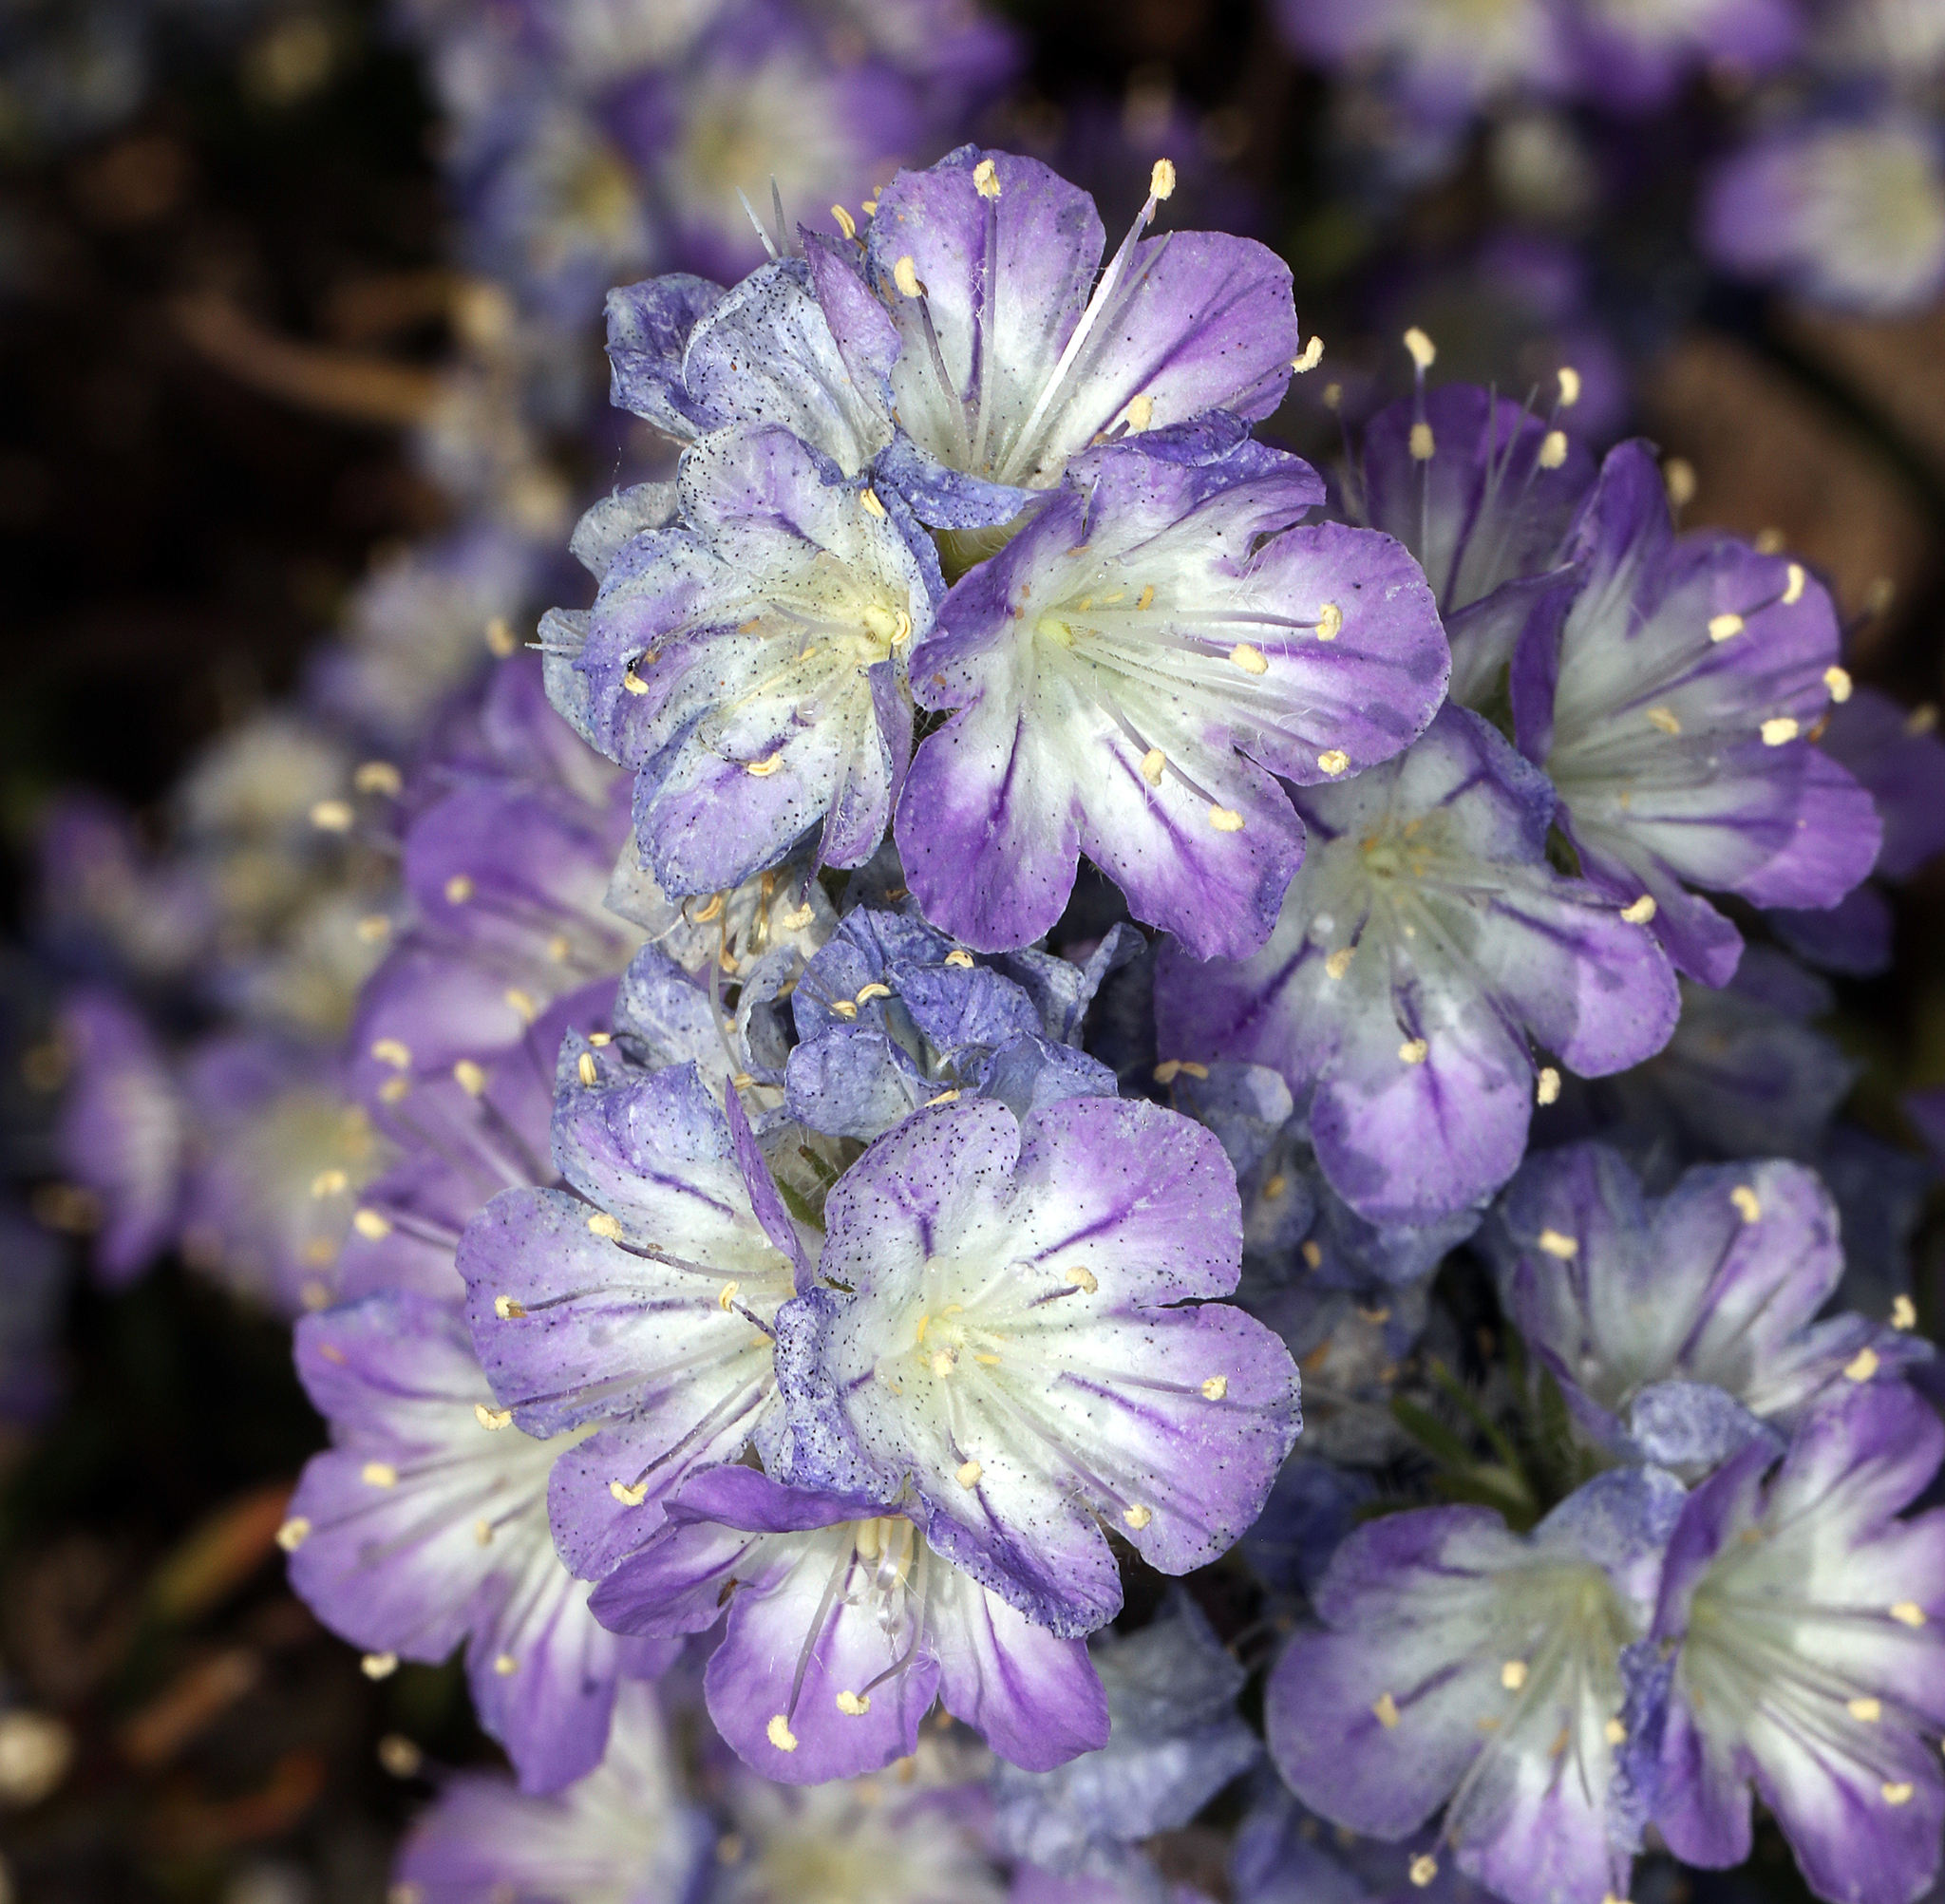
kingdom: Plantae
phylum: Tracheophyta
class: Magnoliopsida
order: Boraginales
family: Hydrophyllaceae
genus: Phacelia
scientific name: Phacelia linearis
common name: Linear-leaved phacelia
